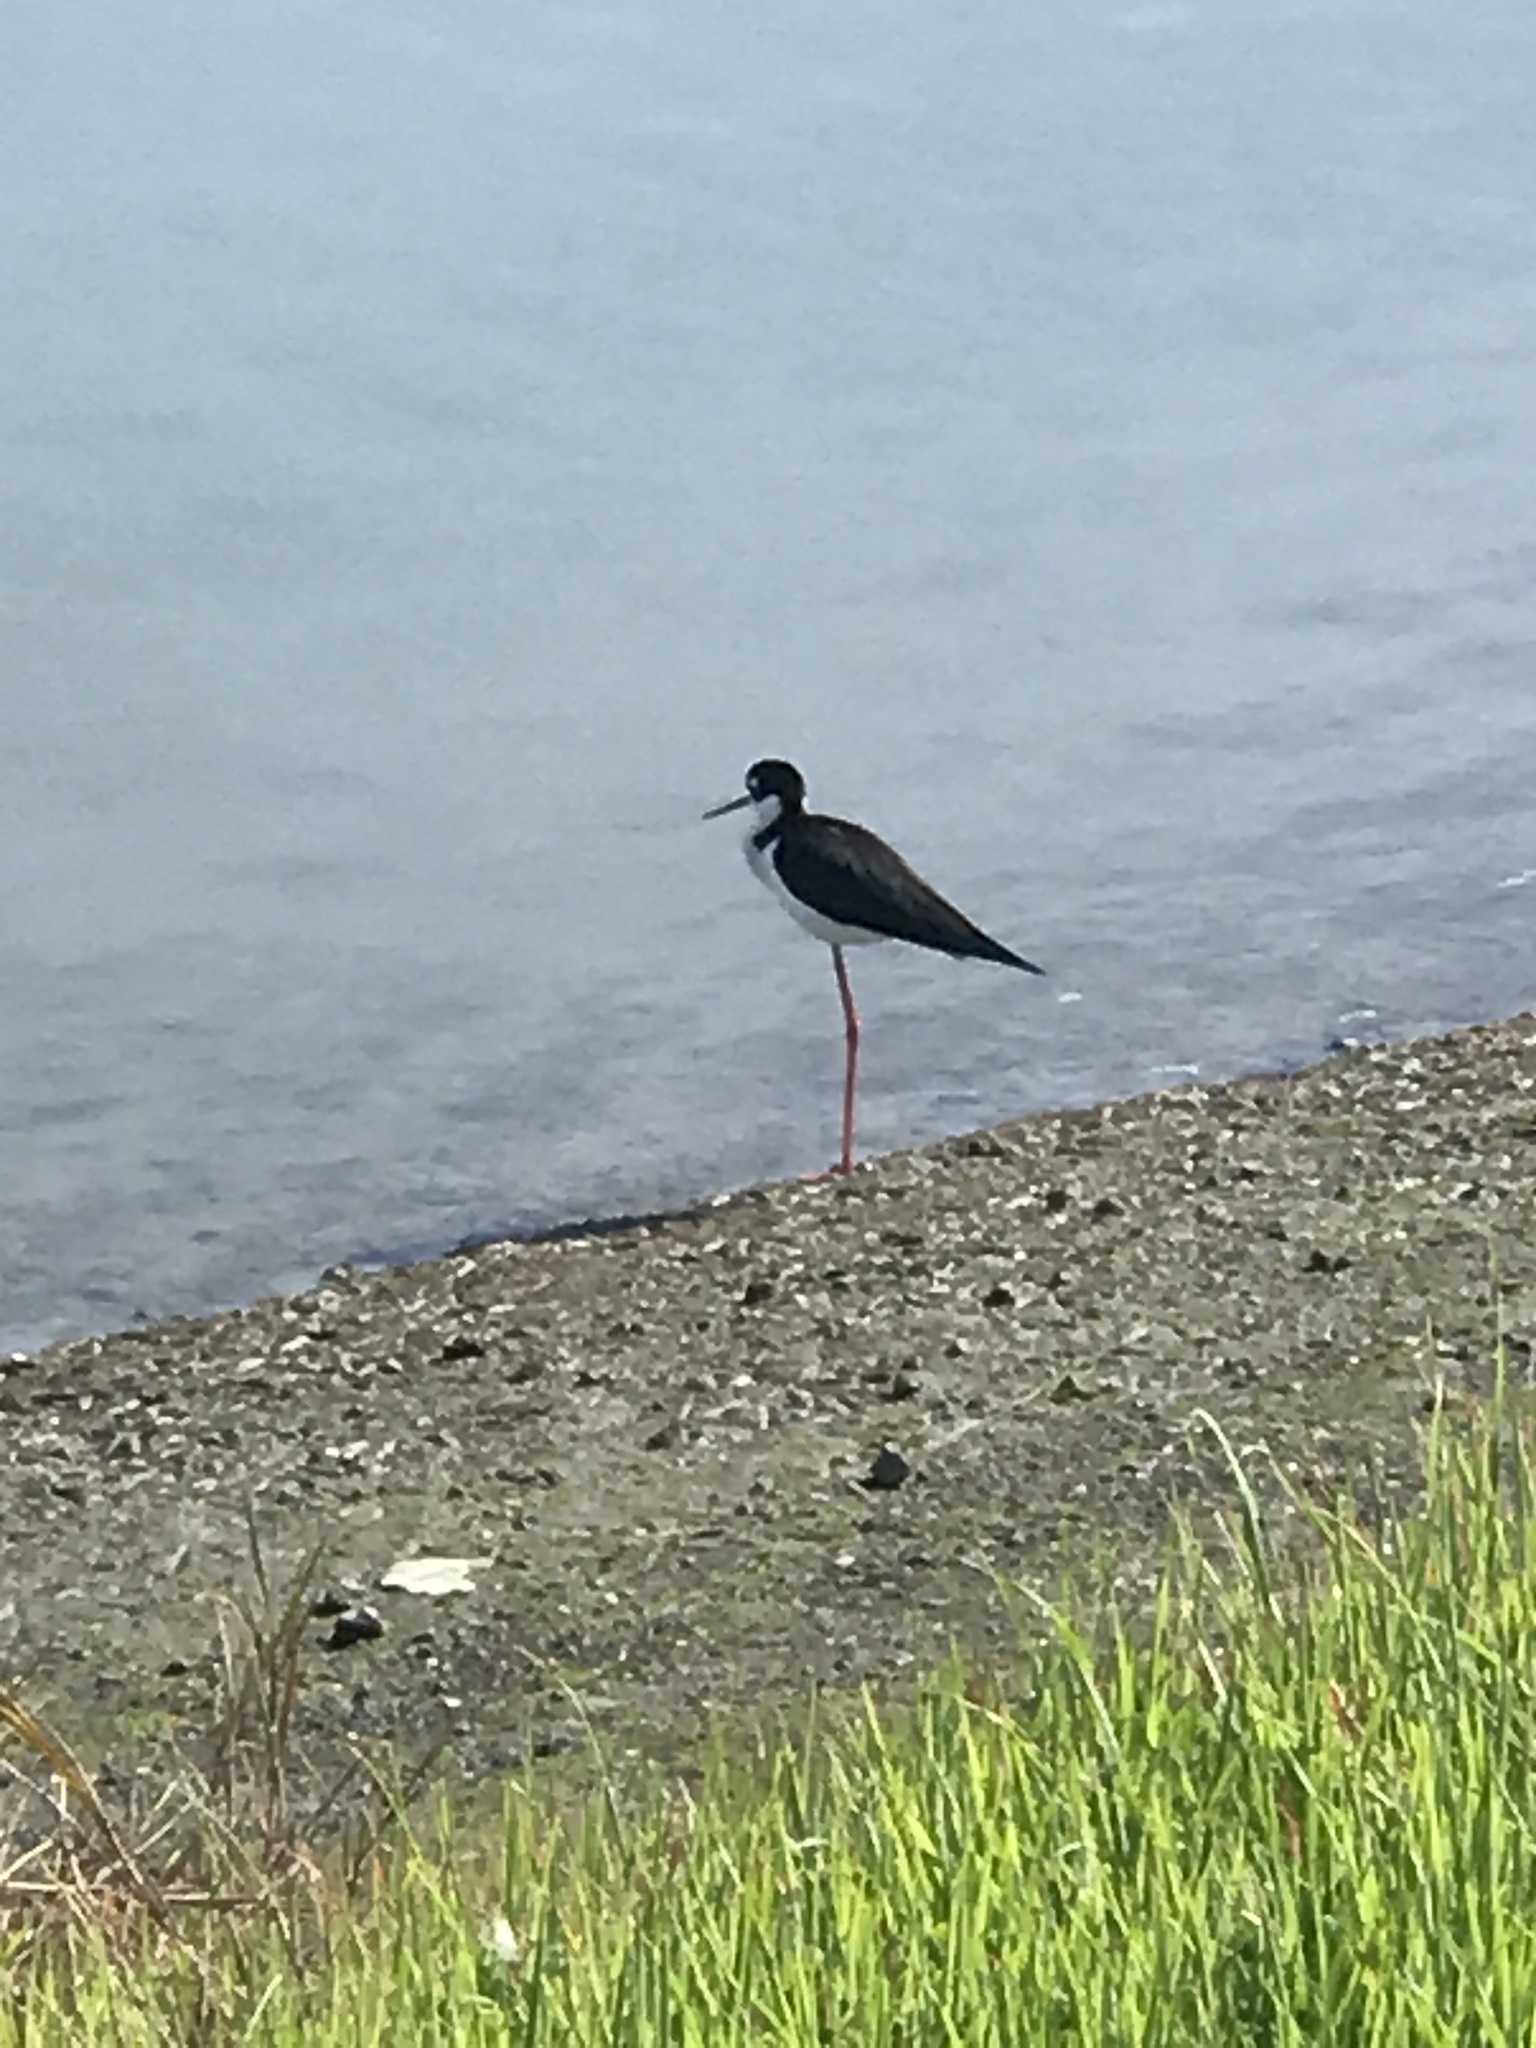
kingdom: Animalia
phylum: Chordata
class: Aves
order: Charadriiformes
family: Recurvirostridae
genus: Himantopus
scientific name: Himantopus mexicanus
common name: Black-necked stilt
